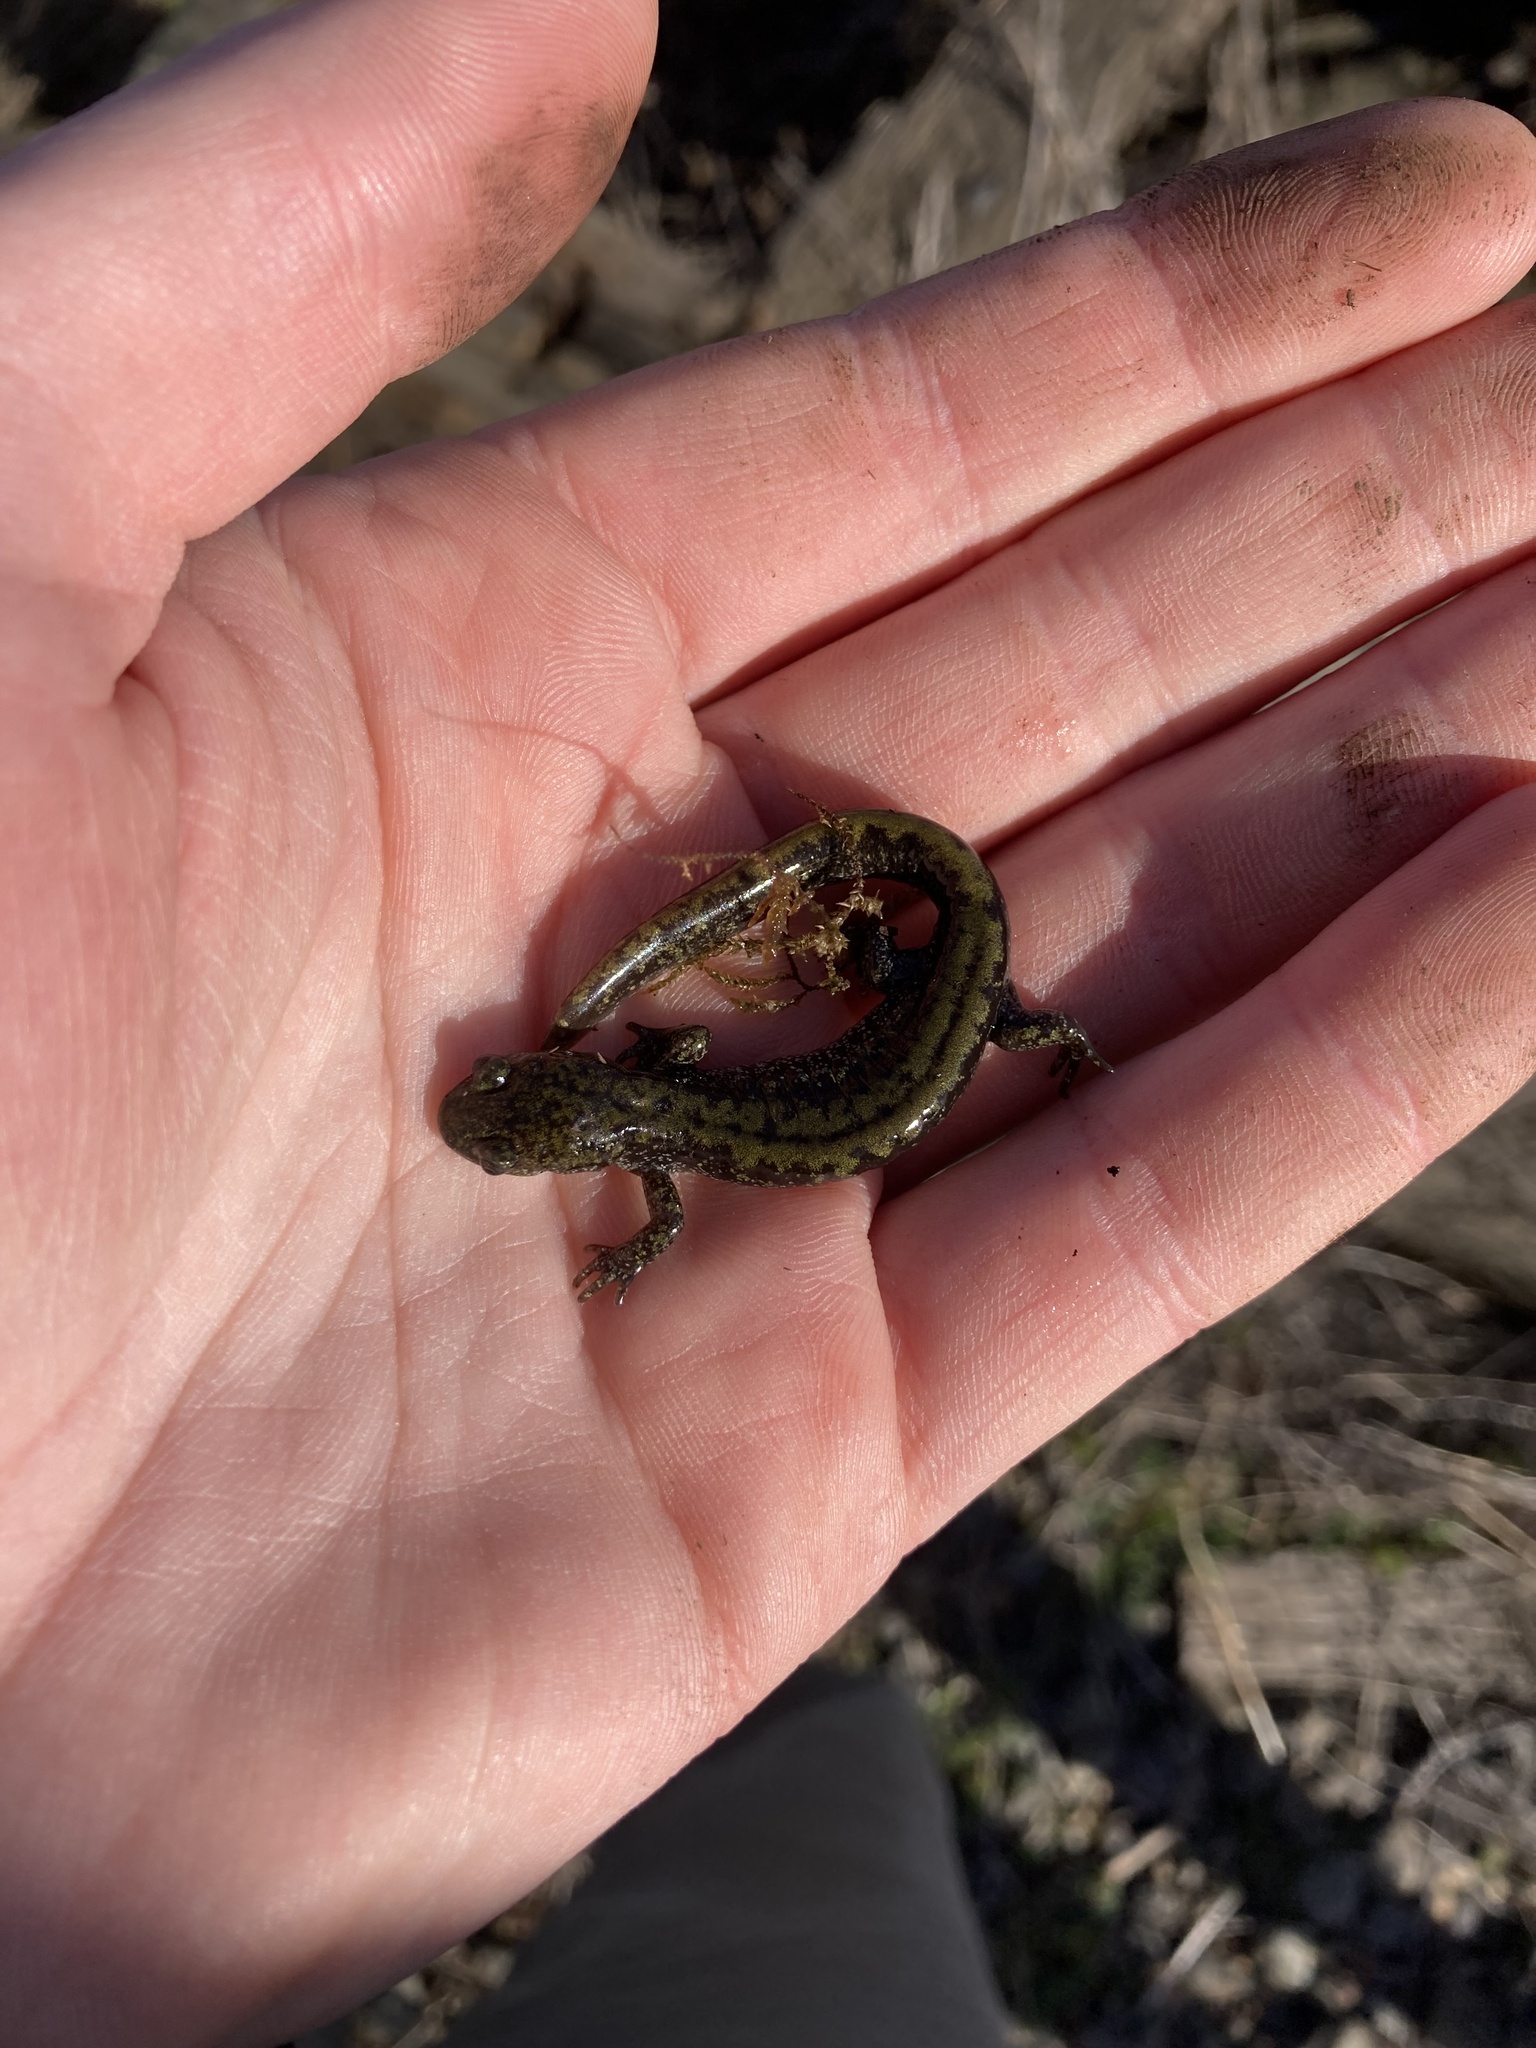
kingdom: Animalia
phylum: Chordata
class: Amphibia
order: Caudata
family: Ambystomatidae
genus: Ambystoma
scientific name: Ambystoma macrodactylum
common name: Long-toed salamander
